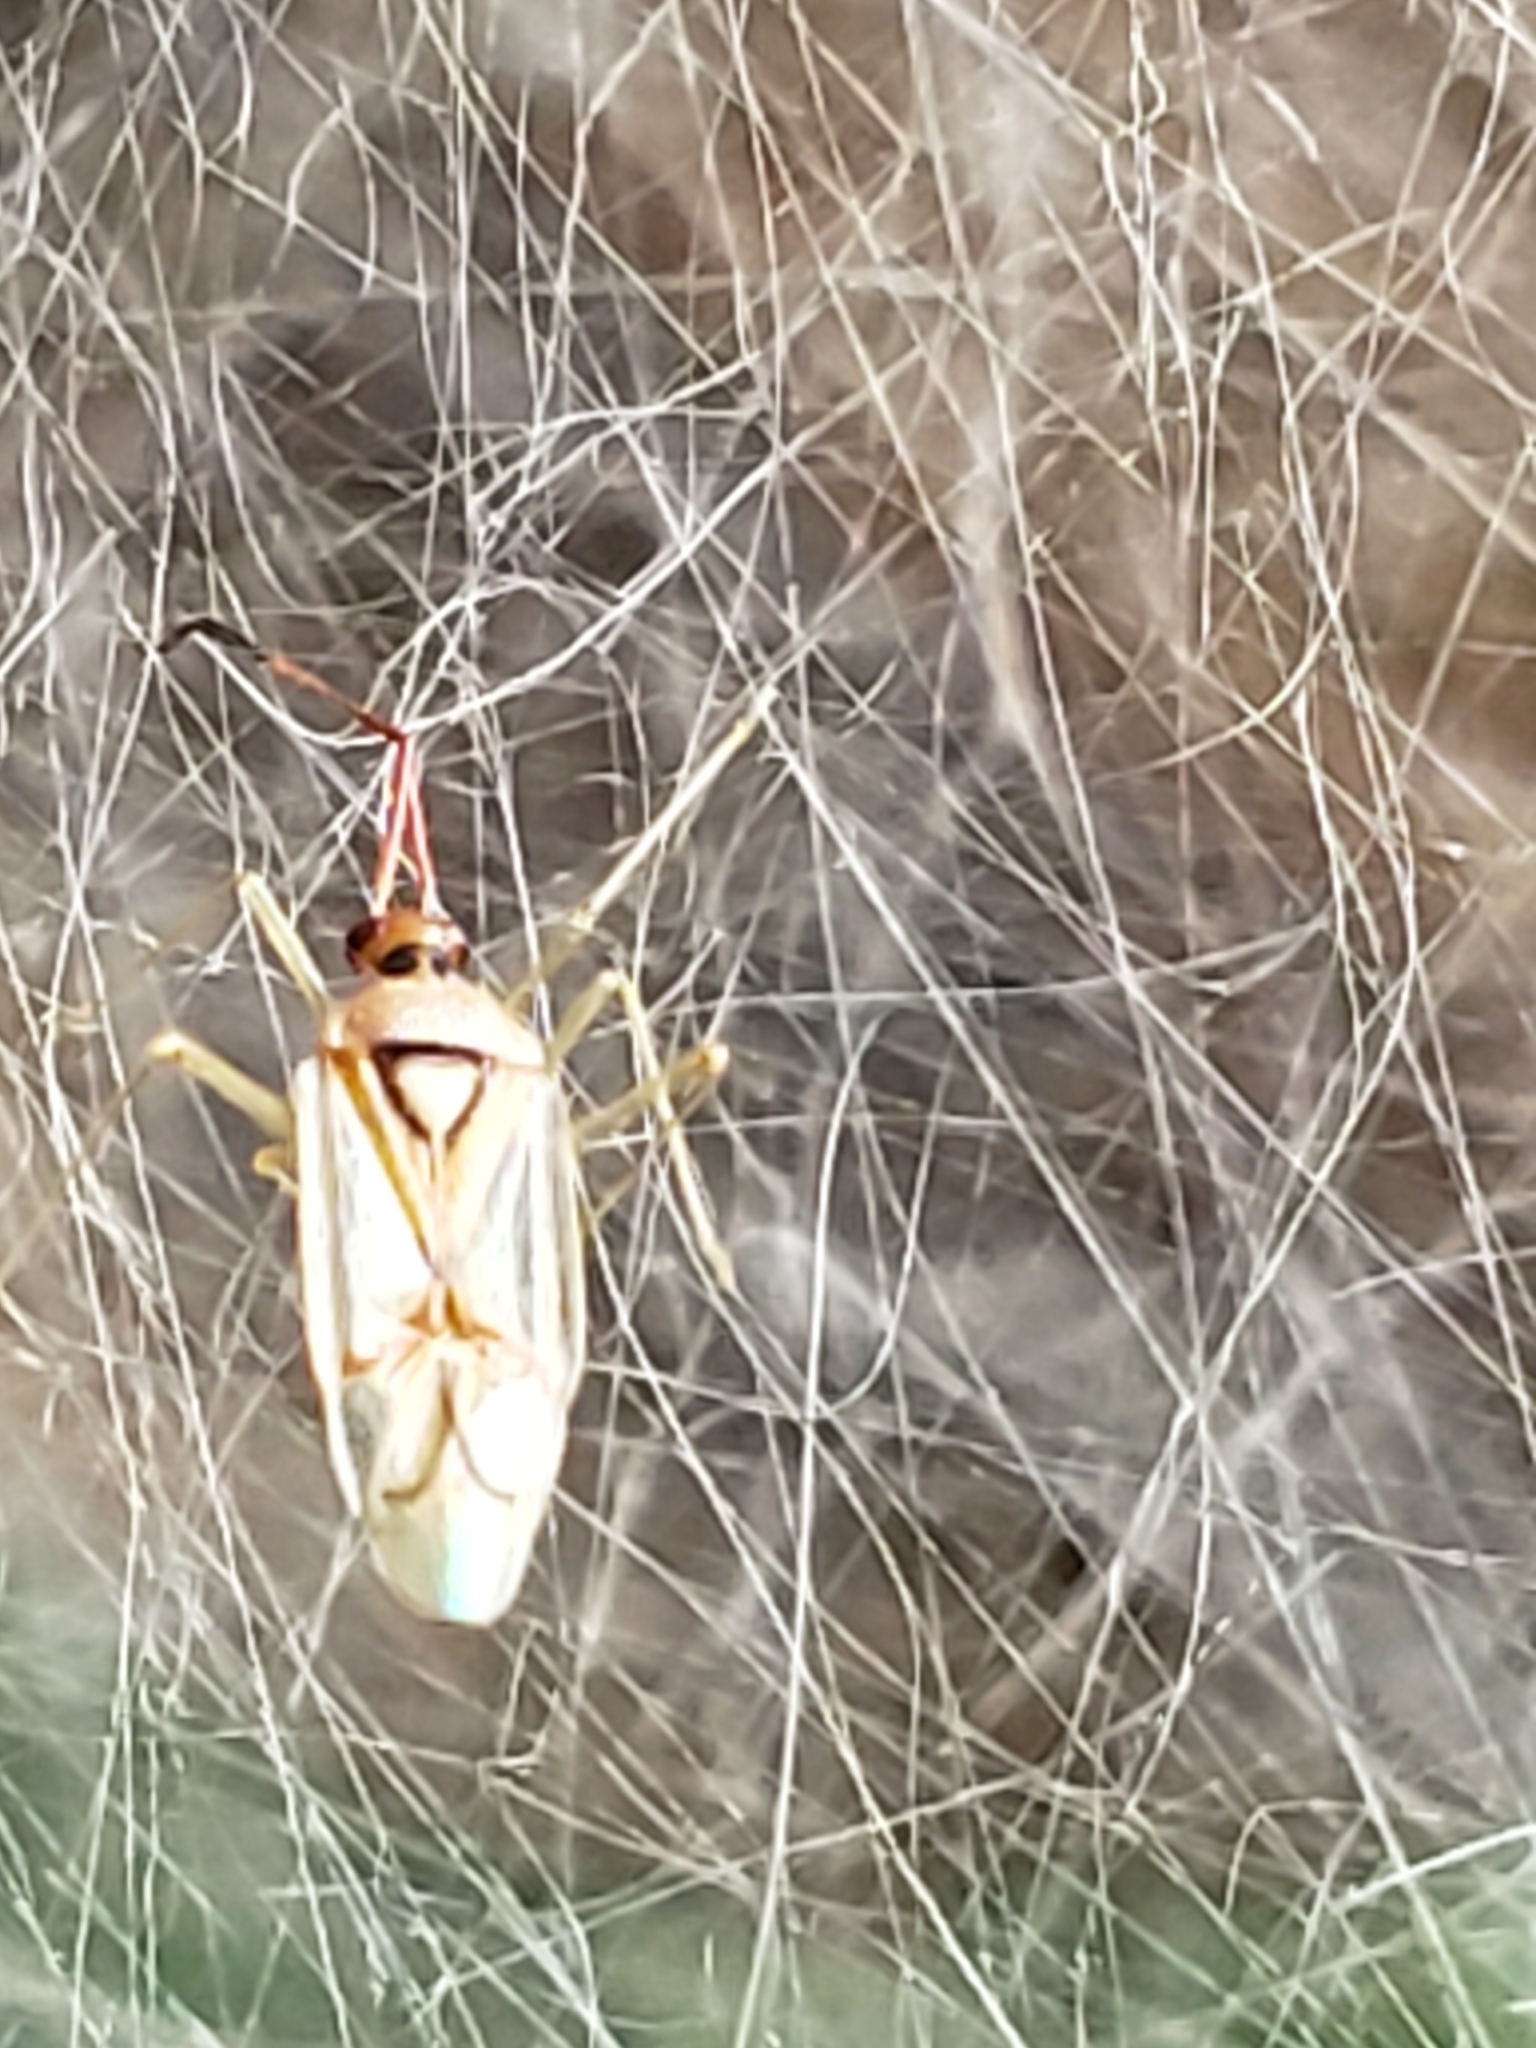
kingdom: Animalia
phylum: Arthropoda
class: Insecta
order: Hemiptera
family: Miridae
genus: Hyaliodes
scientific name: Hyaliodes harti
